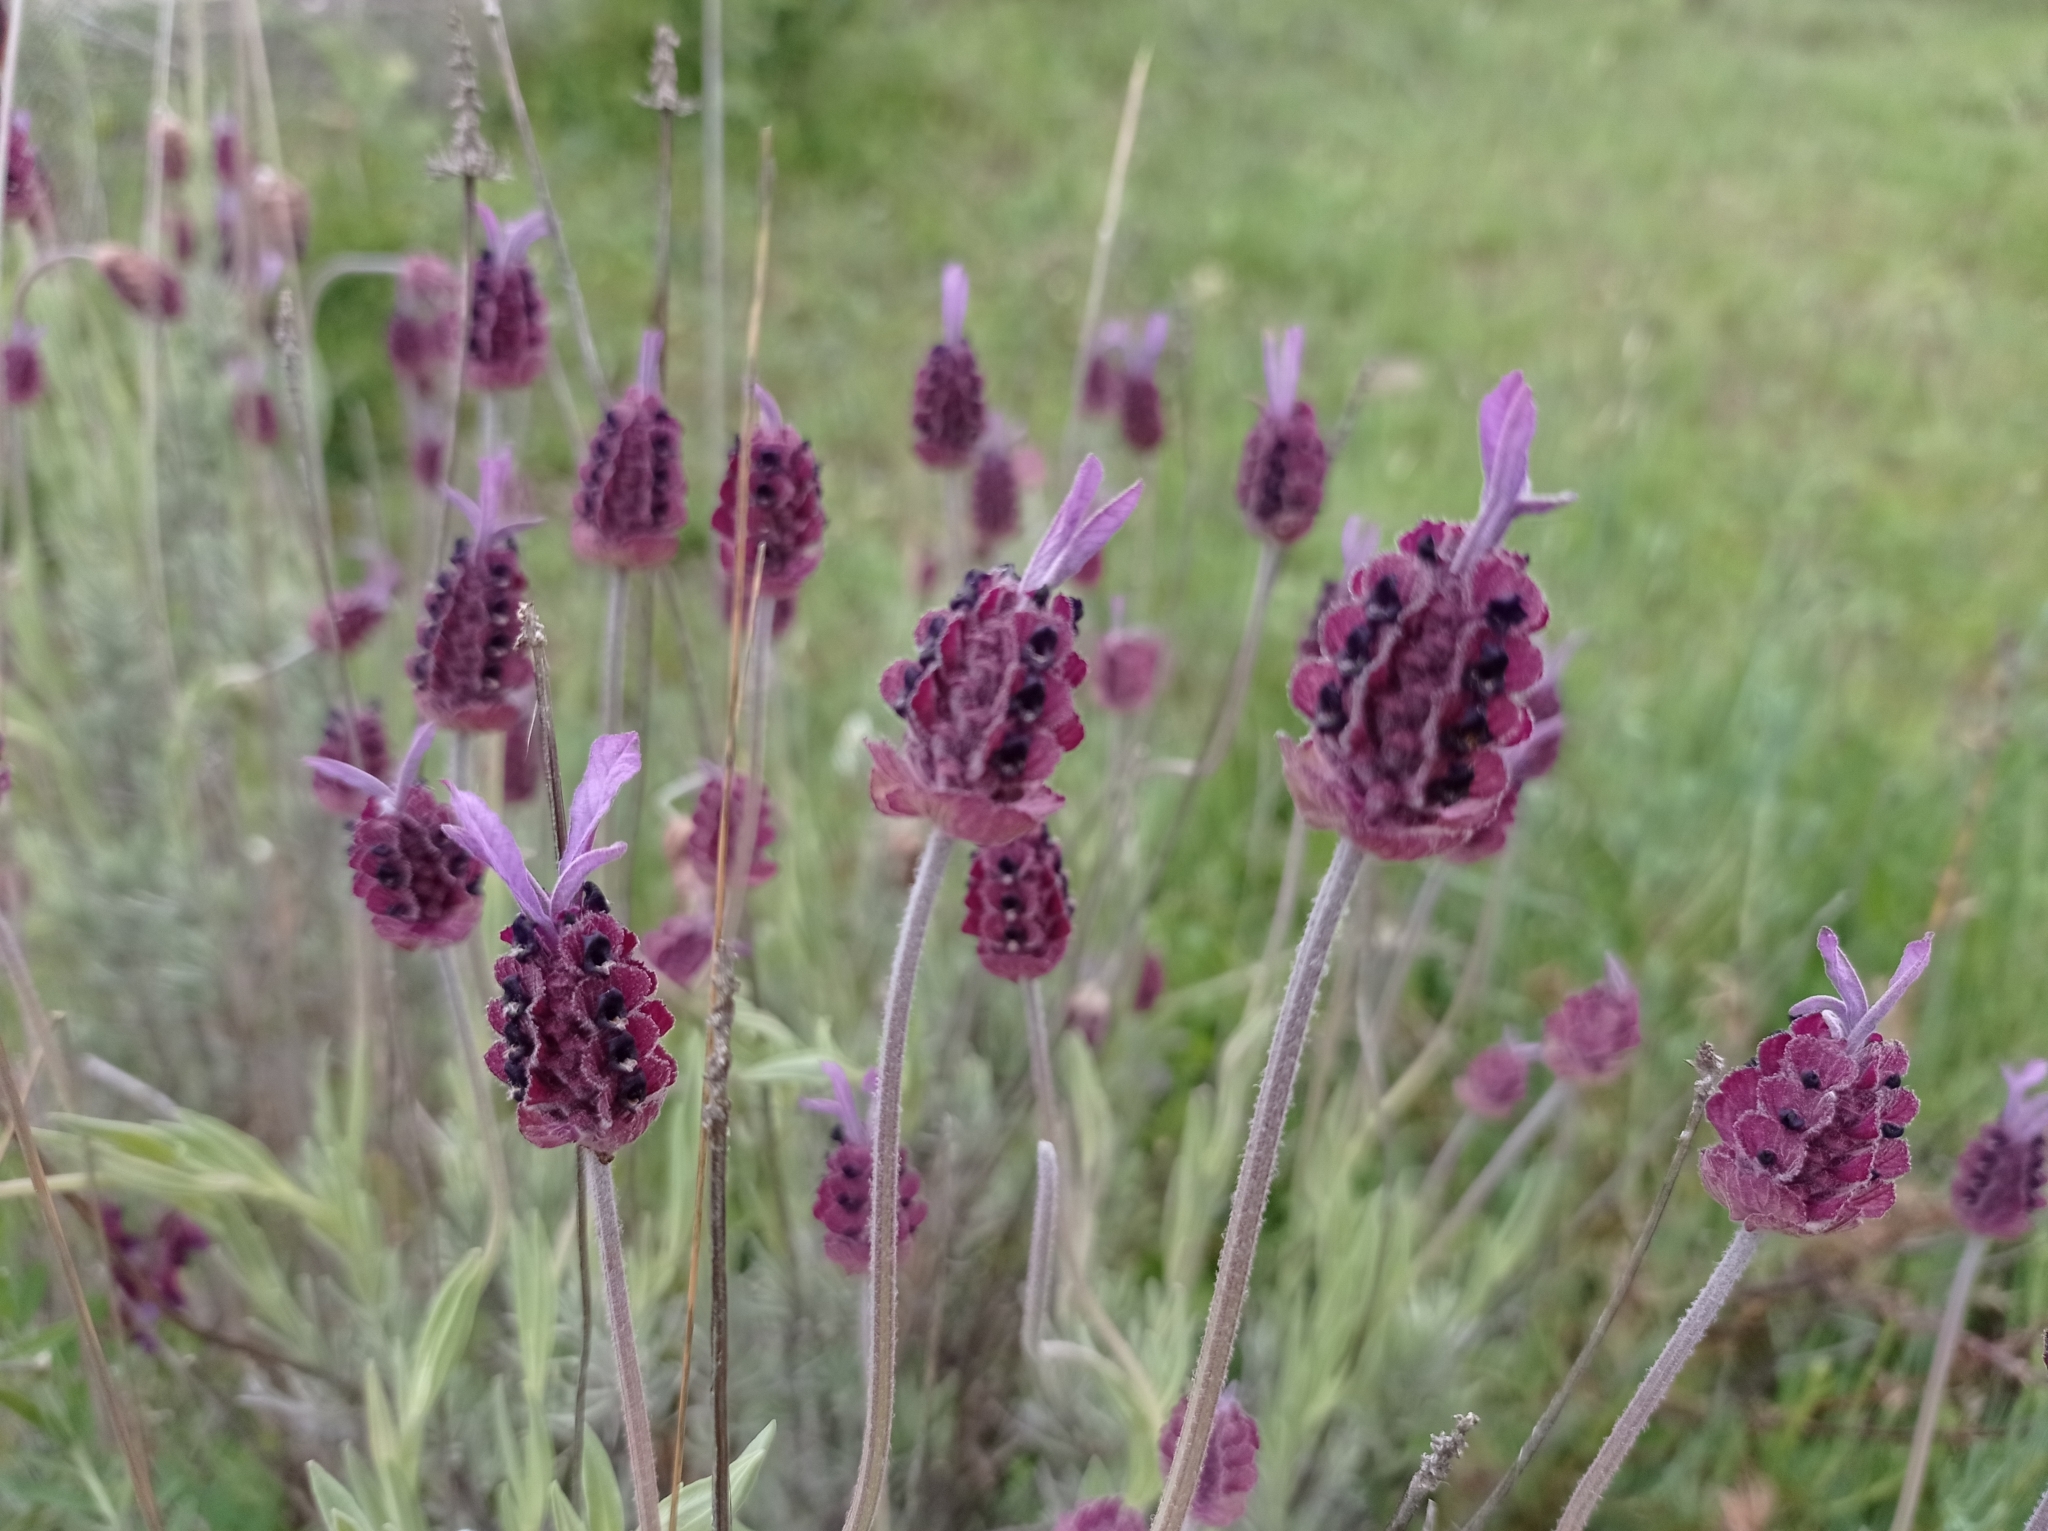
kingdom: Plantae
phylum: Tracheophyta
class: Magnoliopsida
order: Lamiales
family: Lamiaceae
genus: Lavandula
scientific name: Lavandula pedunculata
